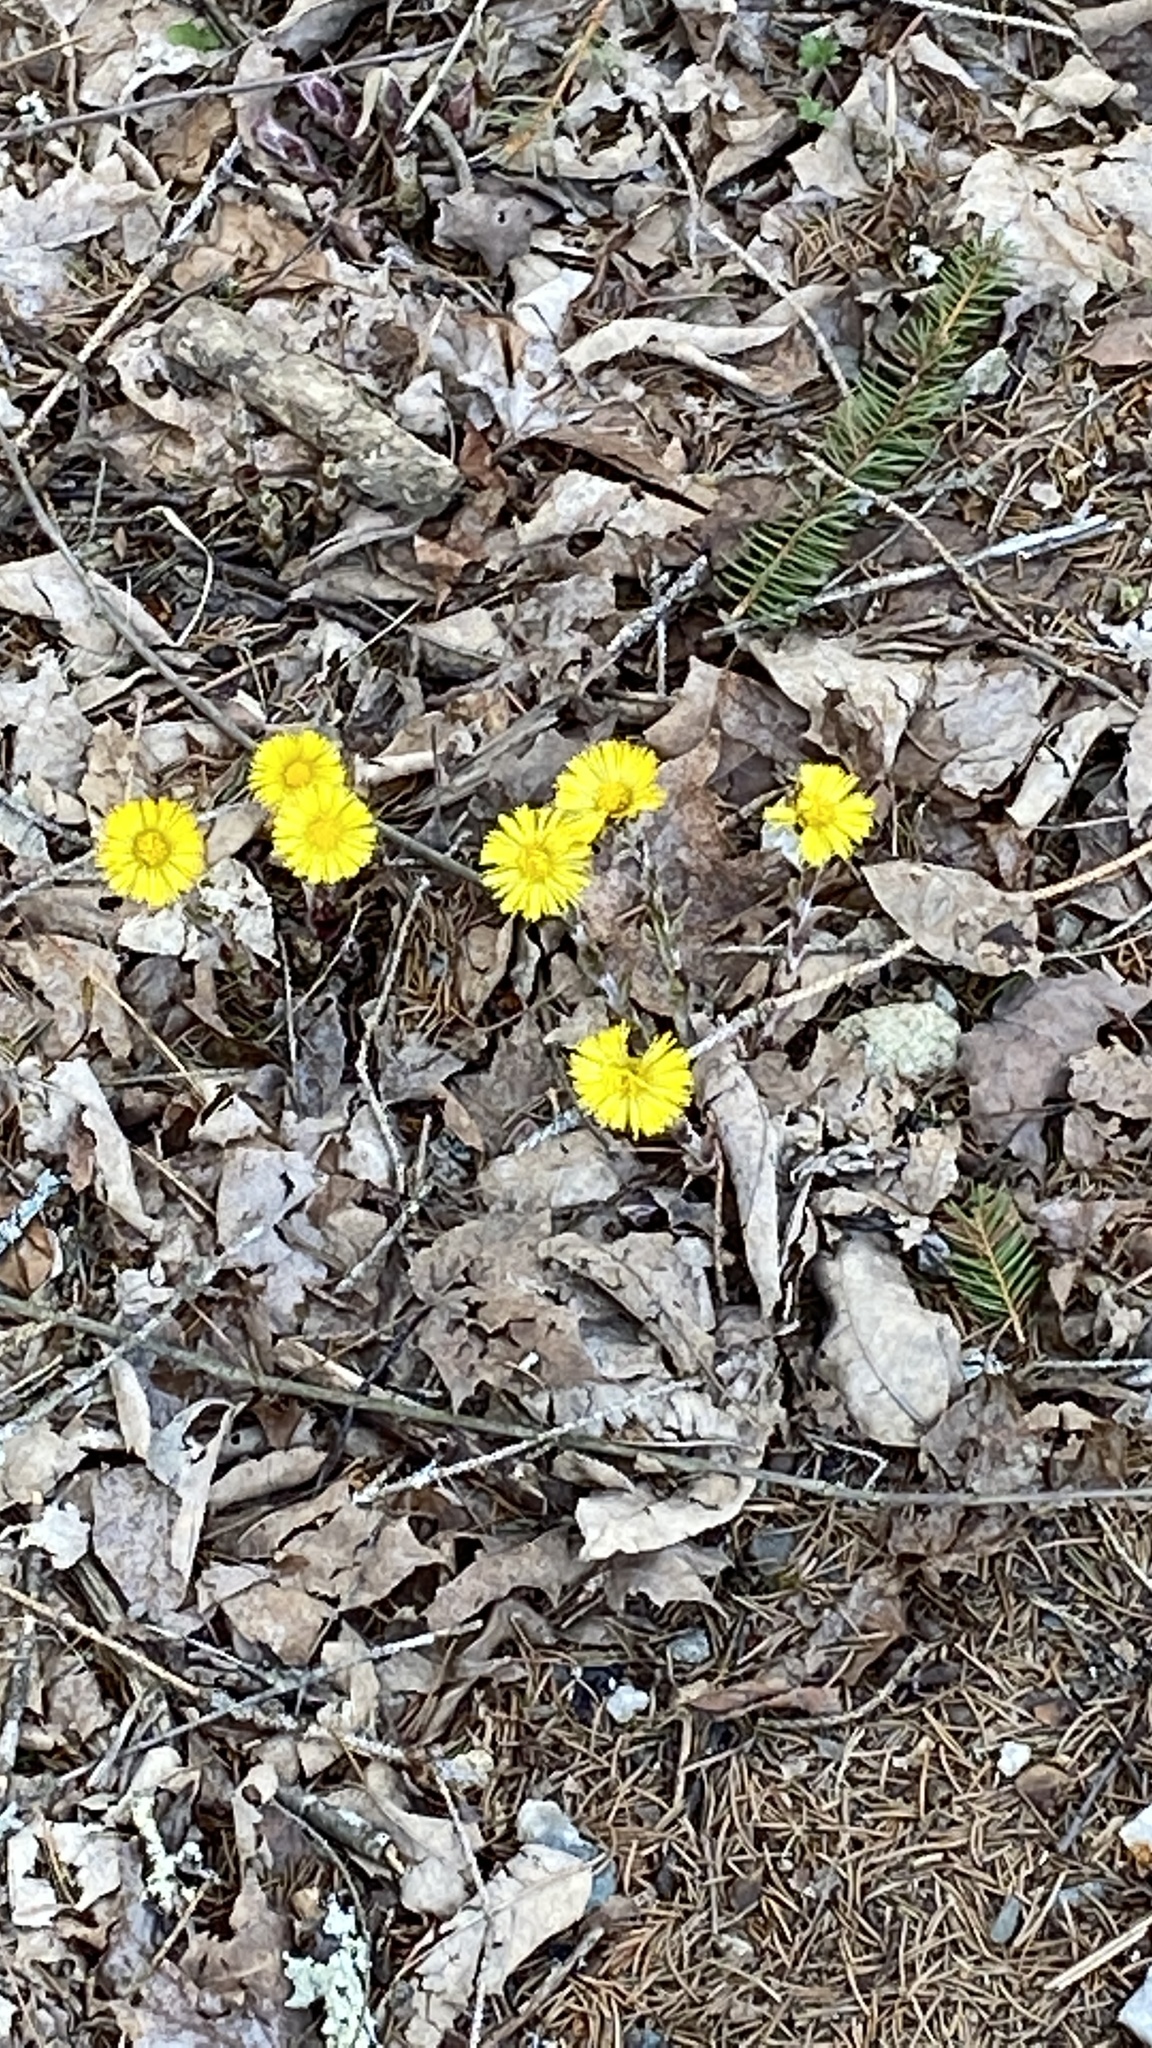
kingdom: Plantae
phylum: Tracheophyta
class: Magnoliopsida
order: Asterales
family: Asteraceae
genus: Tussilago
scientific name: Tussilago farfara
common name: Coltsfoot
